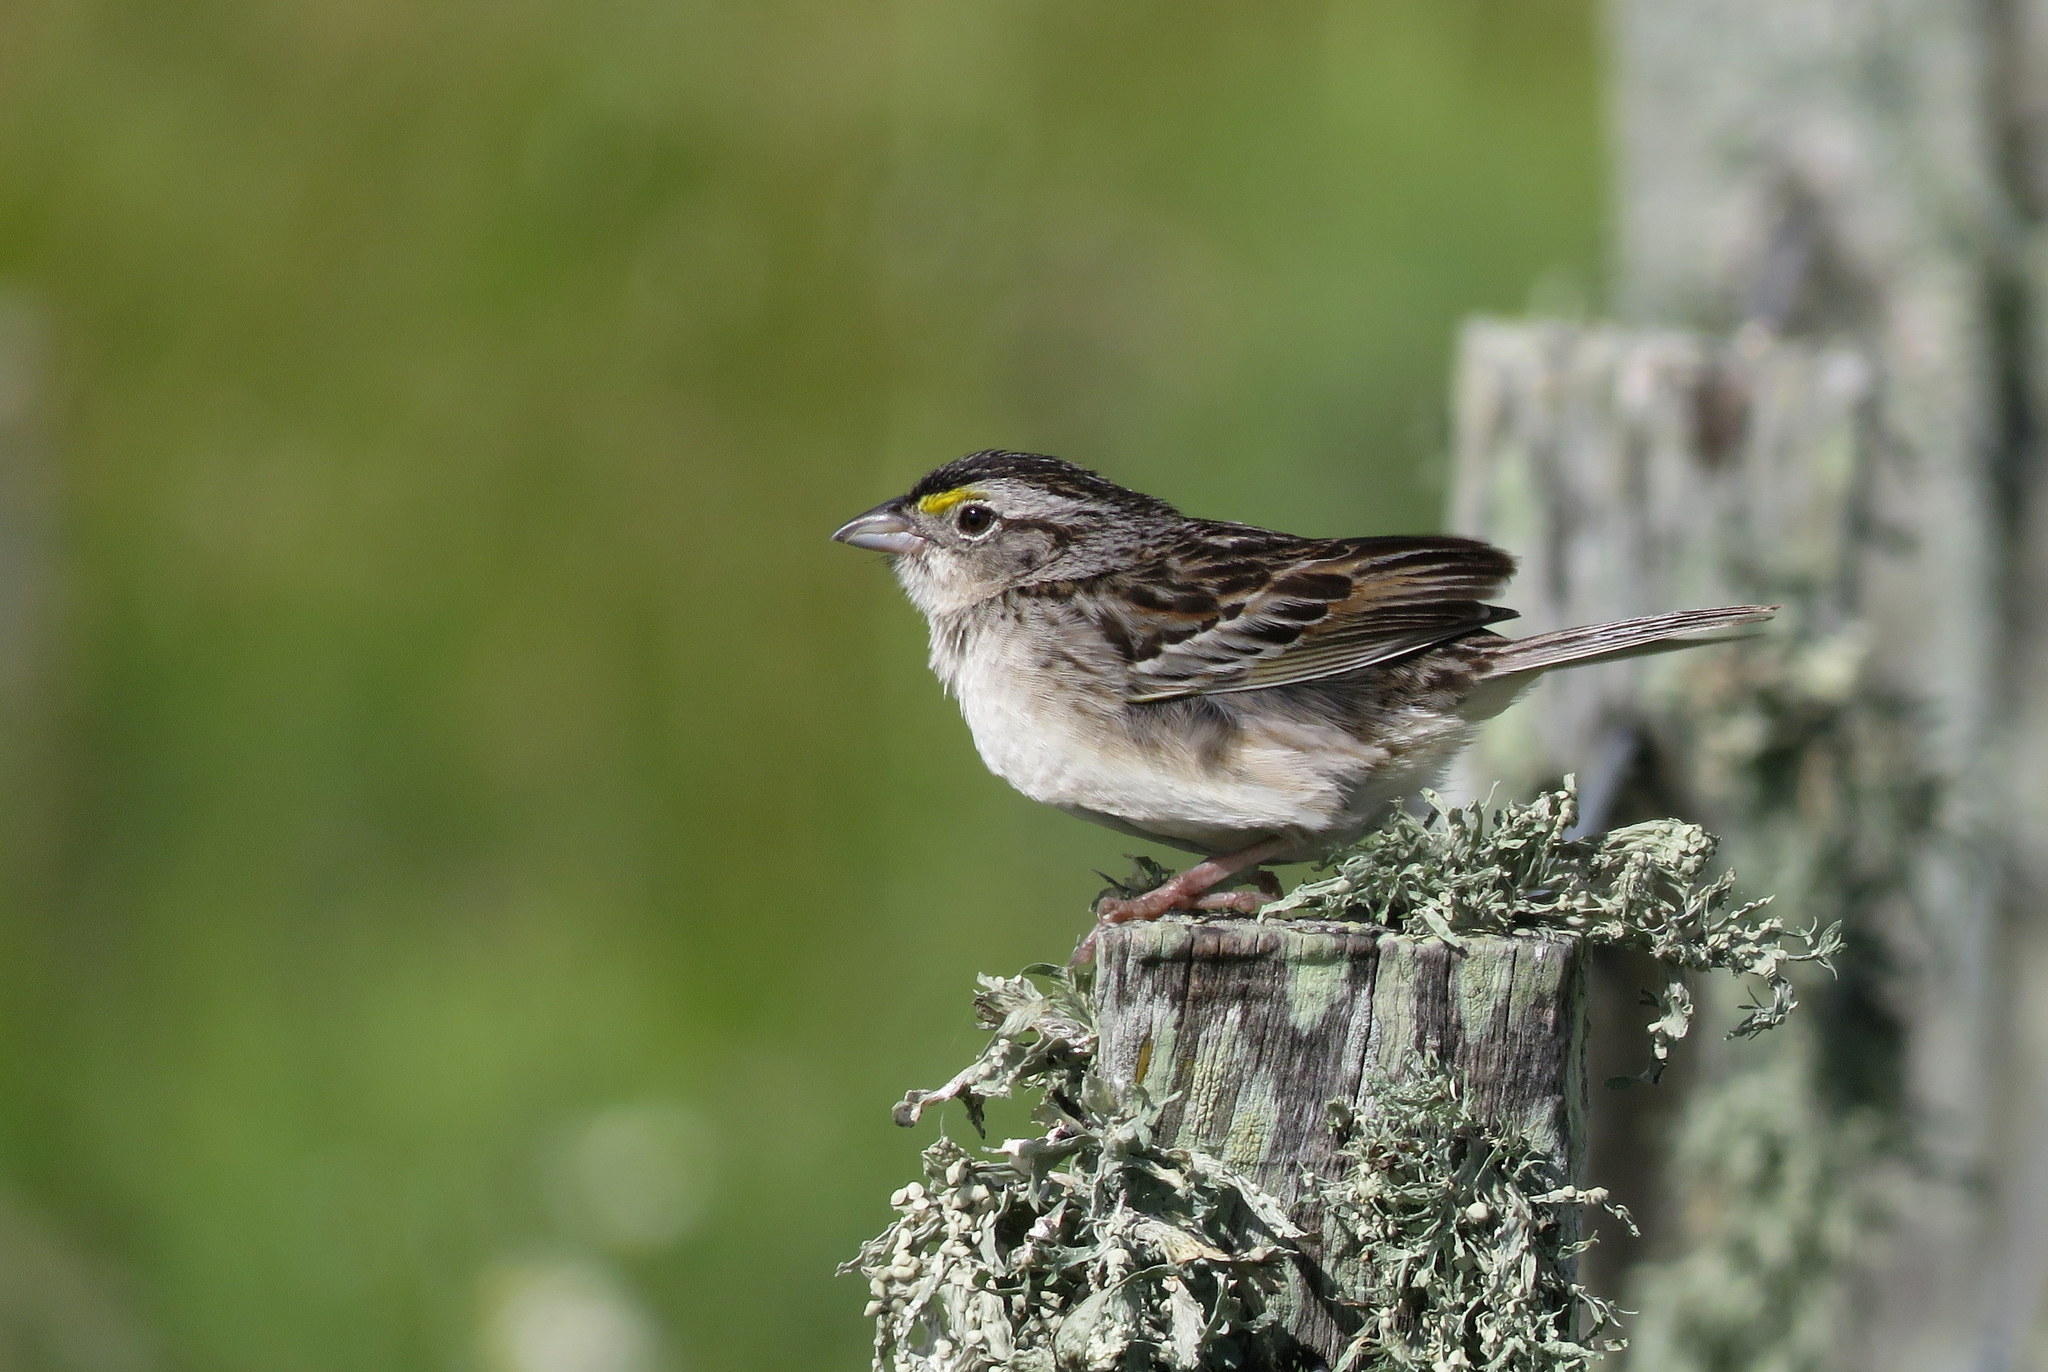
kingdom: Animalia
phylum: Chordata
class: Aves
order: Passeriformes
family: Passerellidae
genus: Ammodramus
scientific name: Ammodramus humeralis
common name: Grassland sparrow
